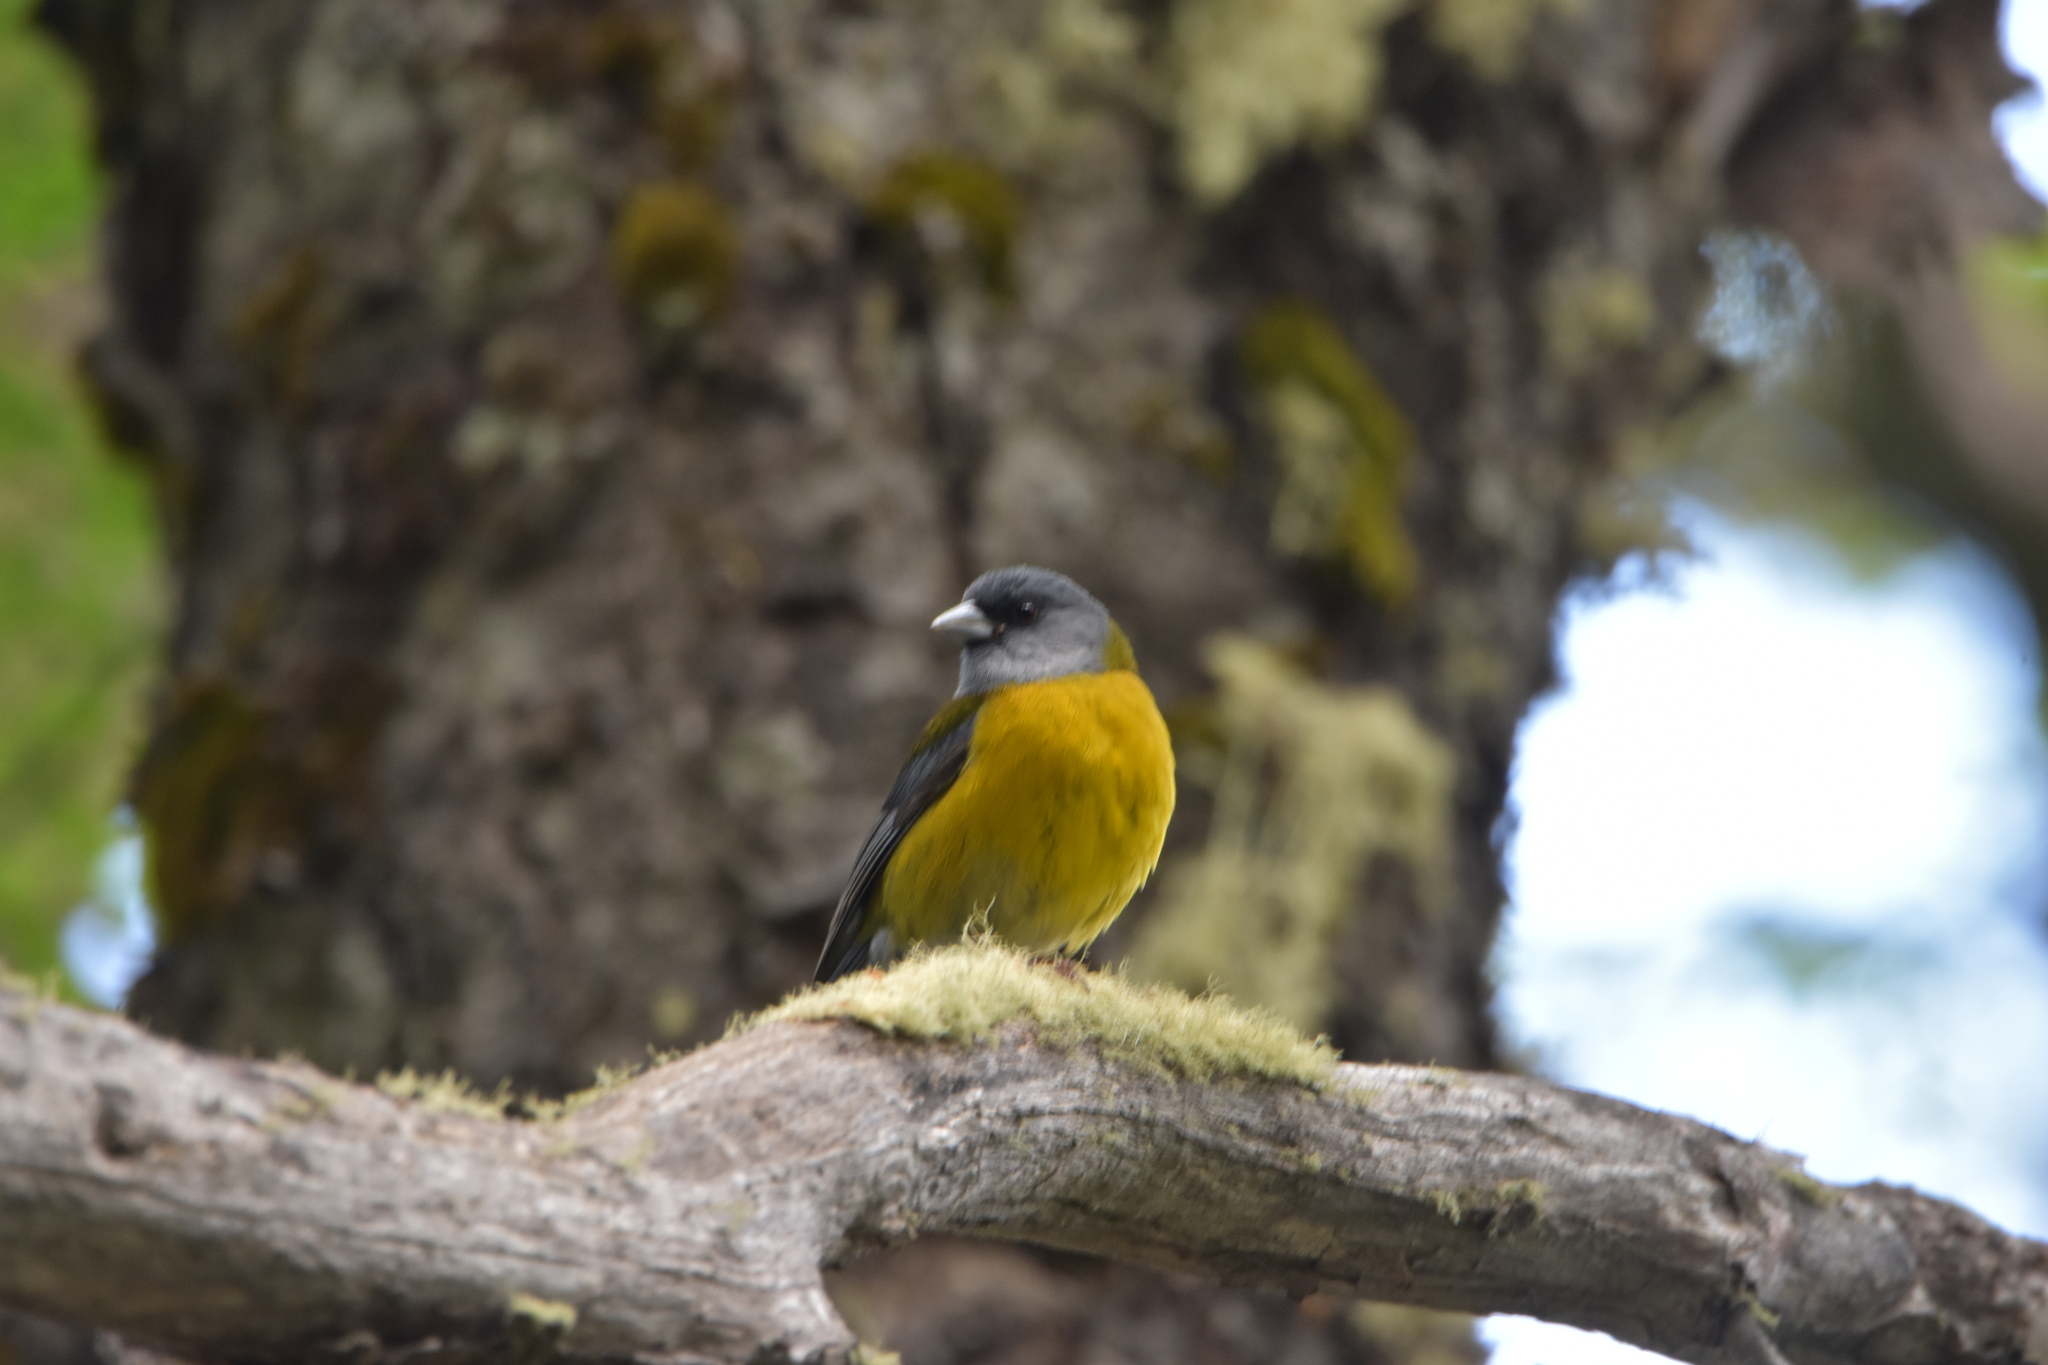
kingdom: Animalia
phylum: Chordata
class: Aves
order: Passeriformes
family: Thraupidae
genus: Phrygilus
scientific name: Phrygilus patagonicus
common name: Patagonian sierra finch
